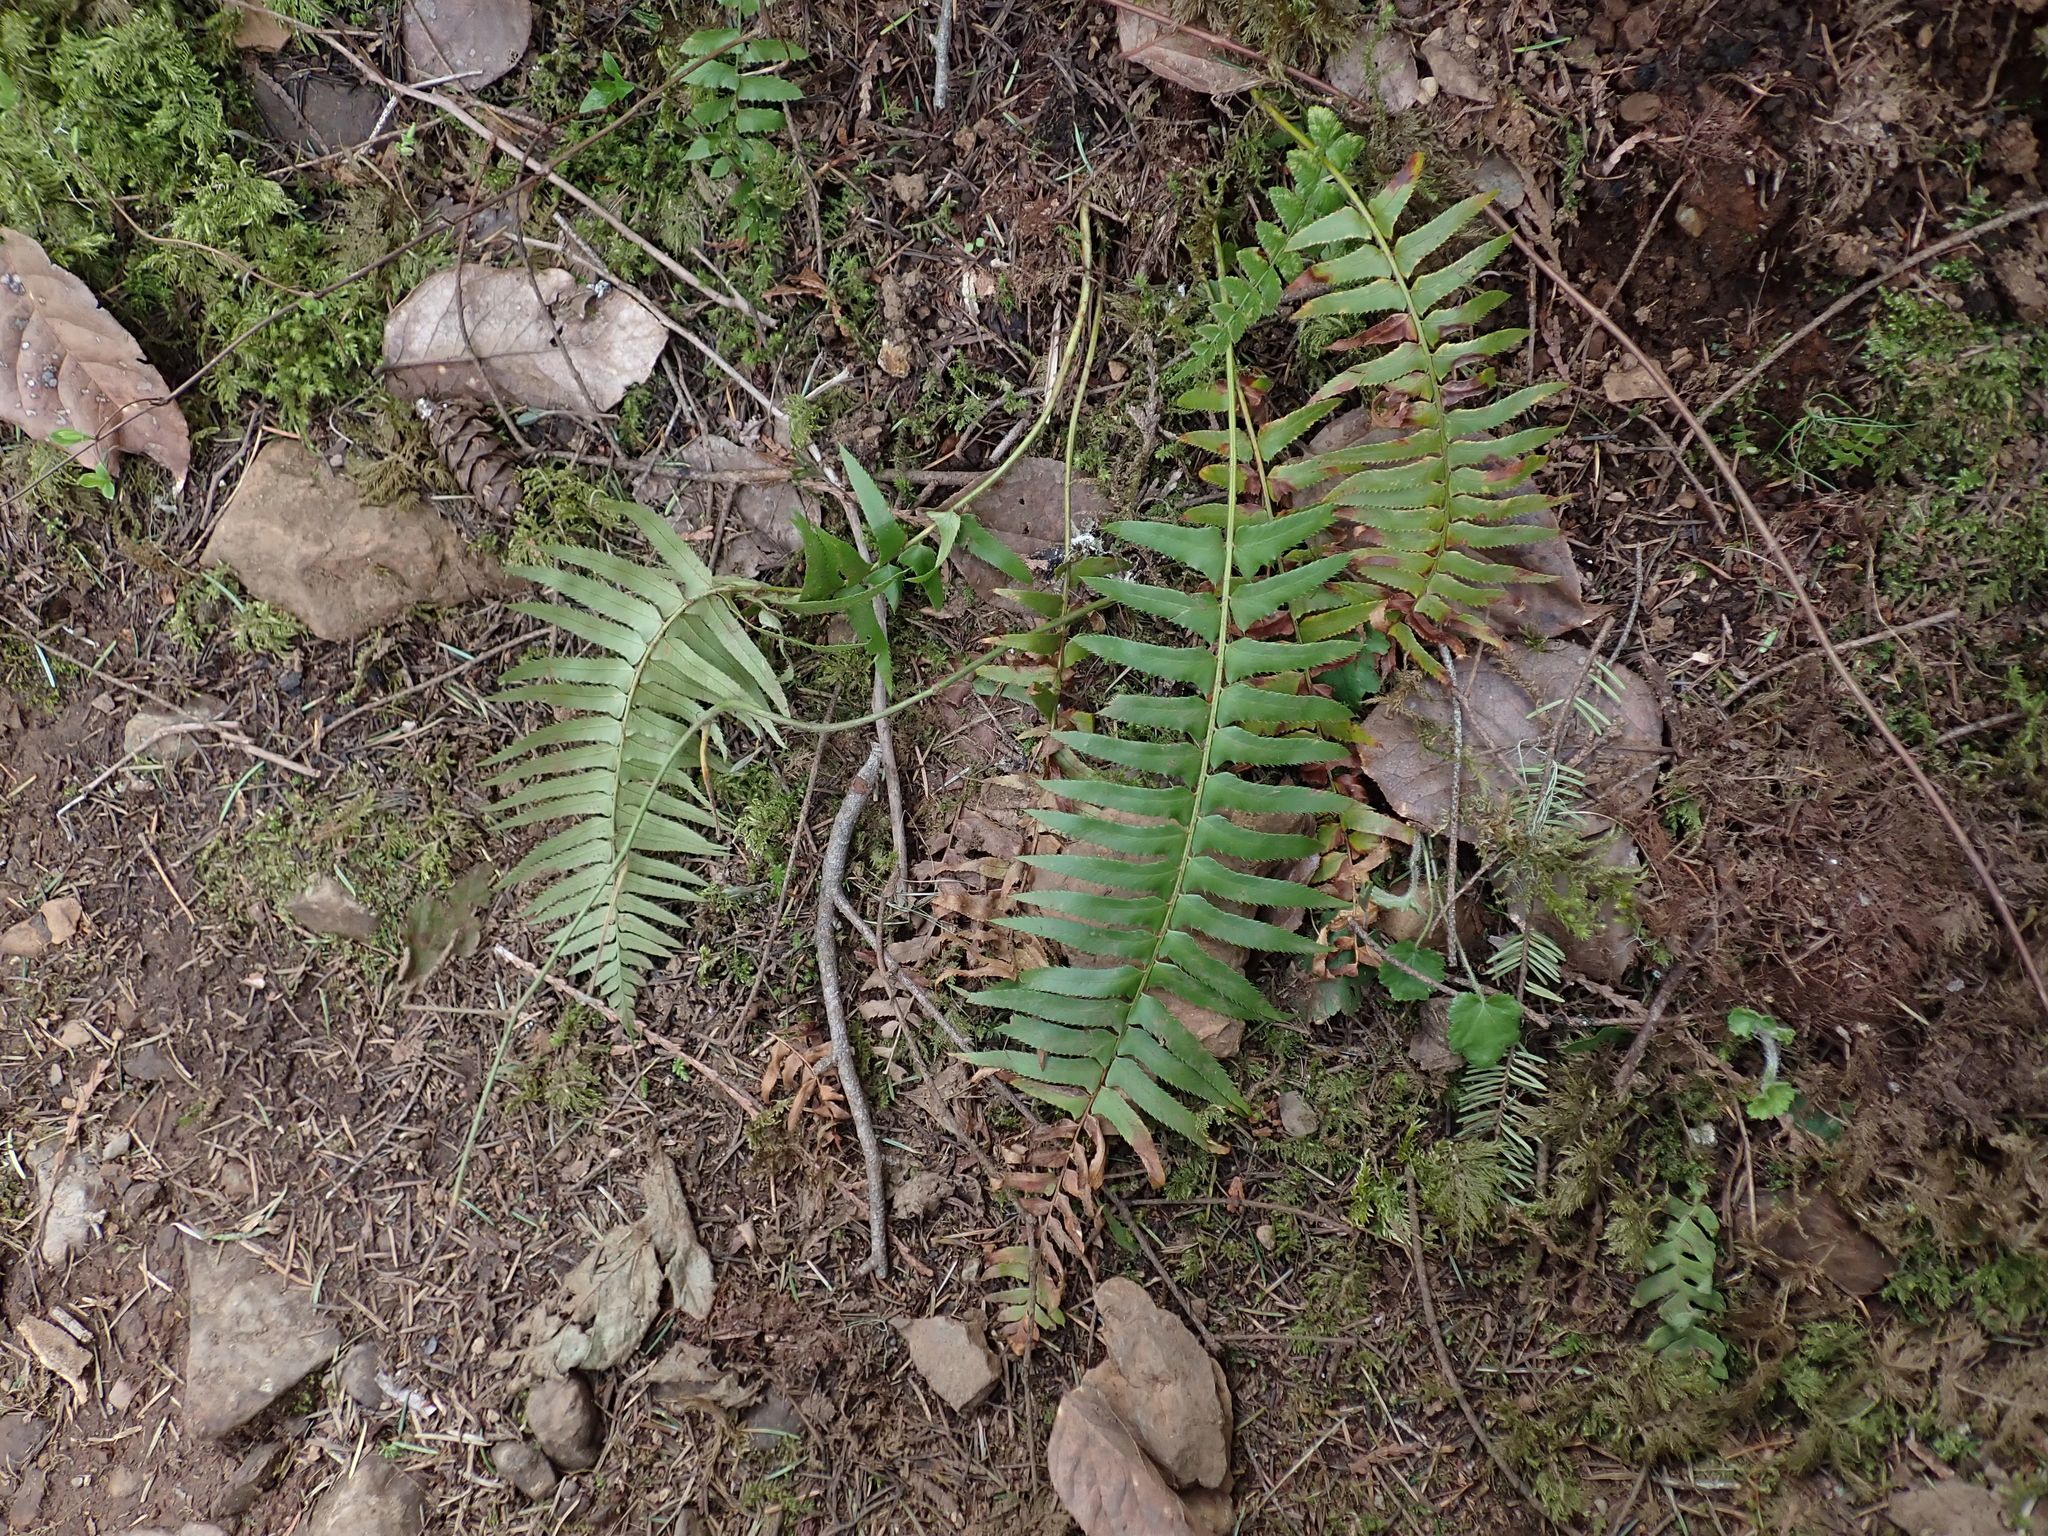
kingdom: Plantae
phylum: Tracheophyta
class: Polypodiopsida
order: Polypodiales
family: Dryopteridaceae
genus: Polystichum
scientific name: Polystichum munitum
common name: Western sword-fern
